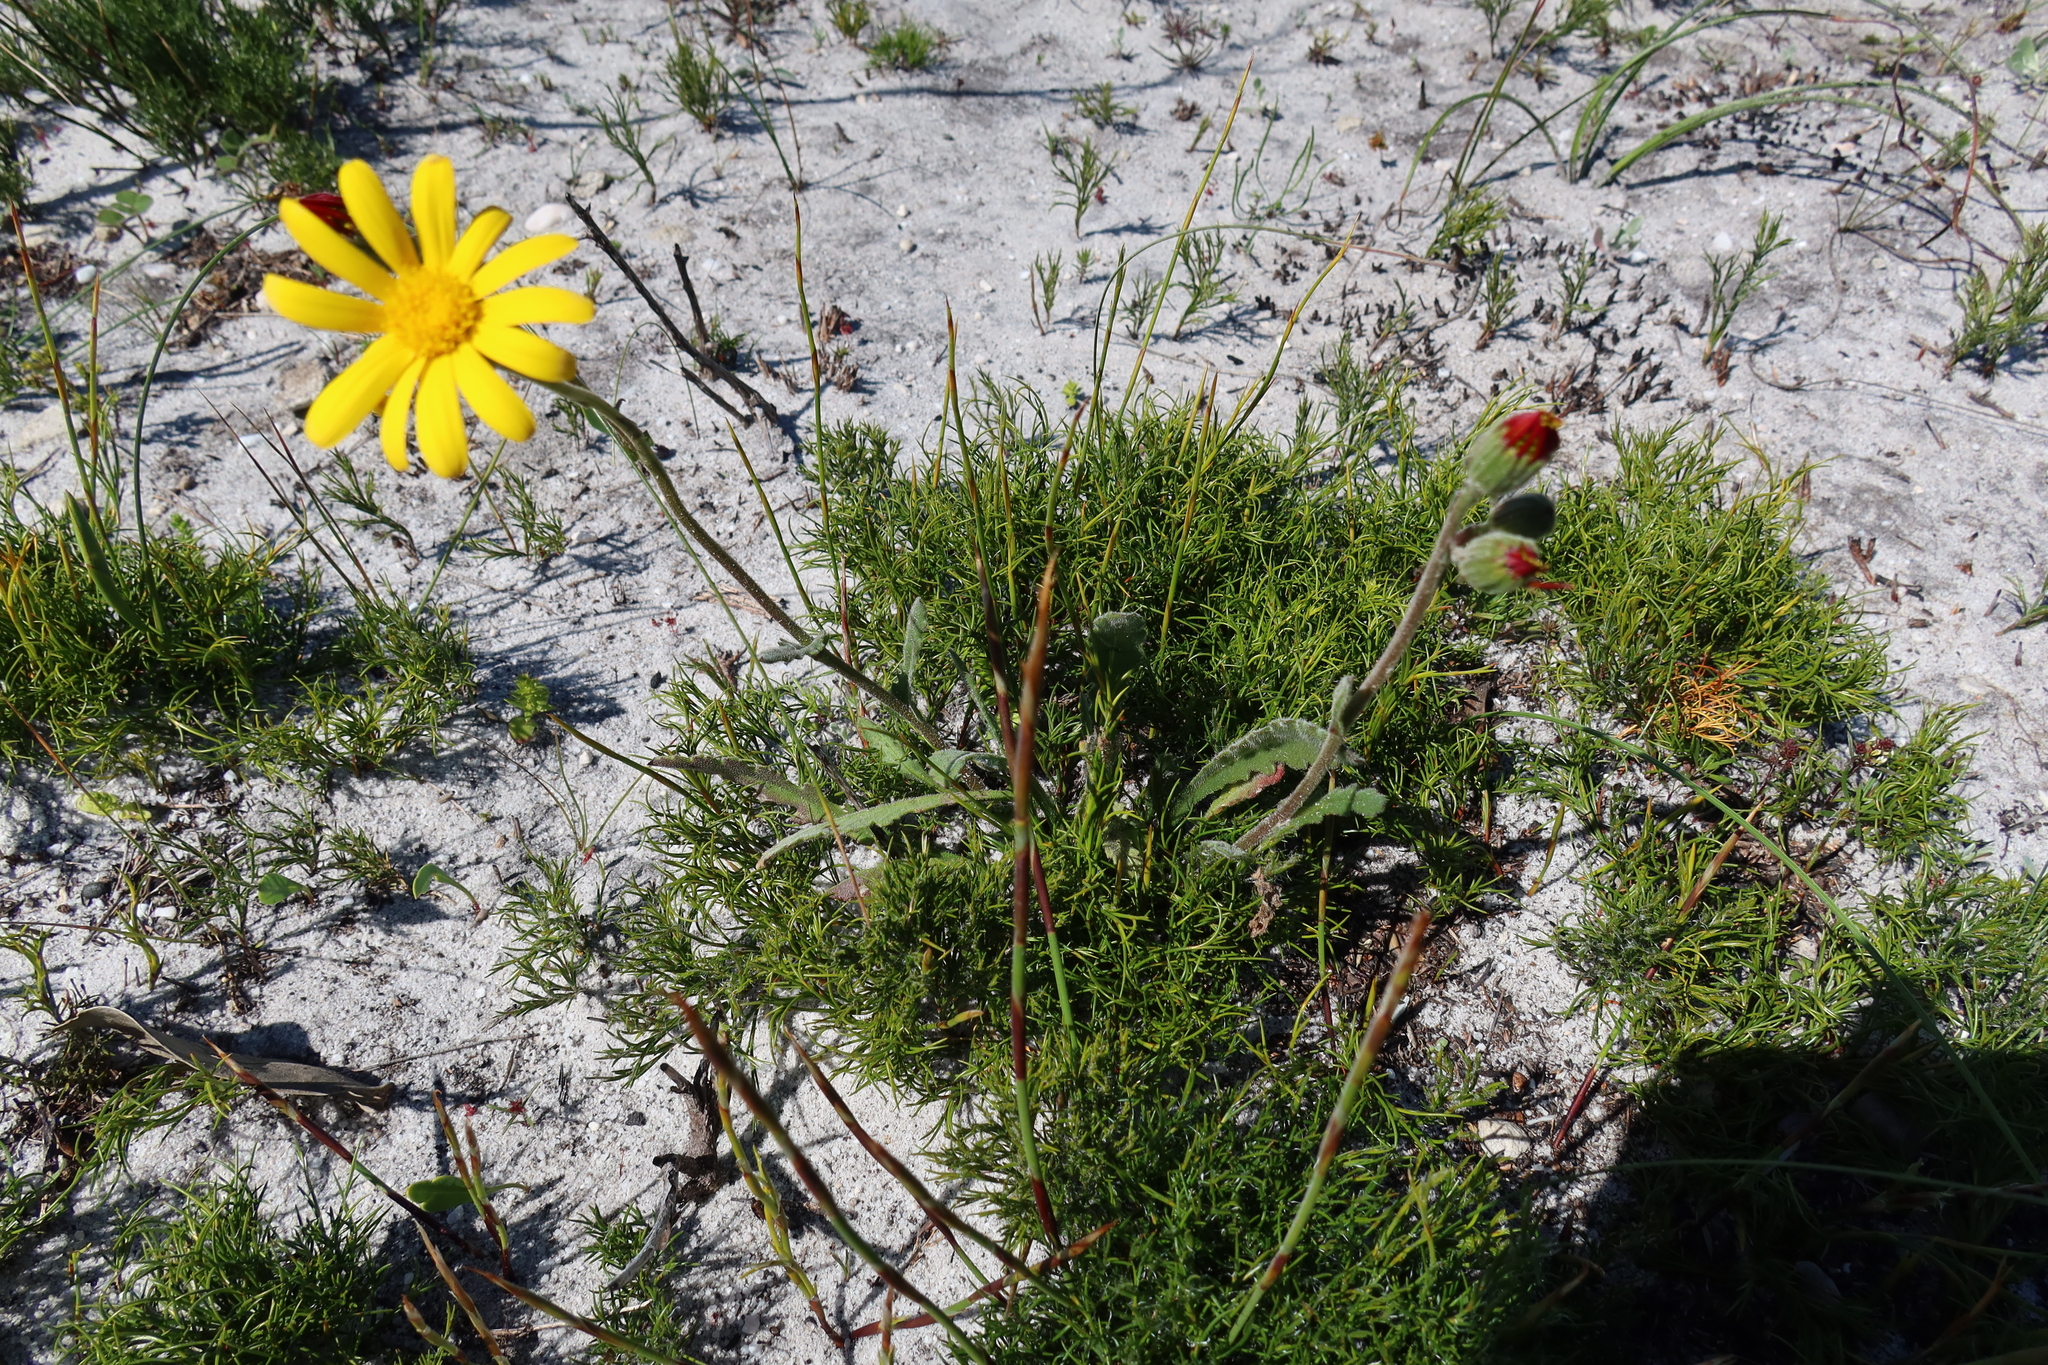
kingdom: Plantae
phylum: Tracheophyta
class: Magnoliopsida
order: Asterales
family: Asteraceae
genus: Senecio
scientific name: Senecio hastatus
